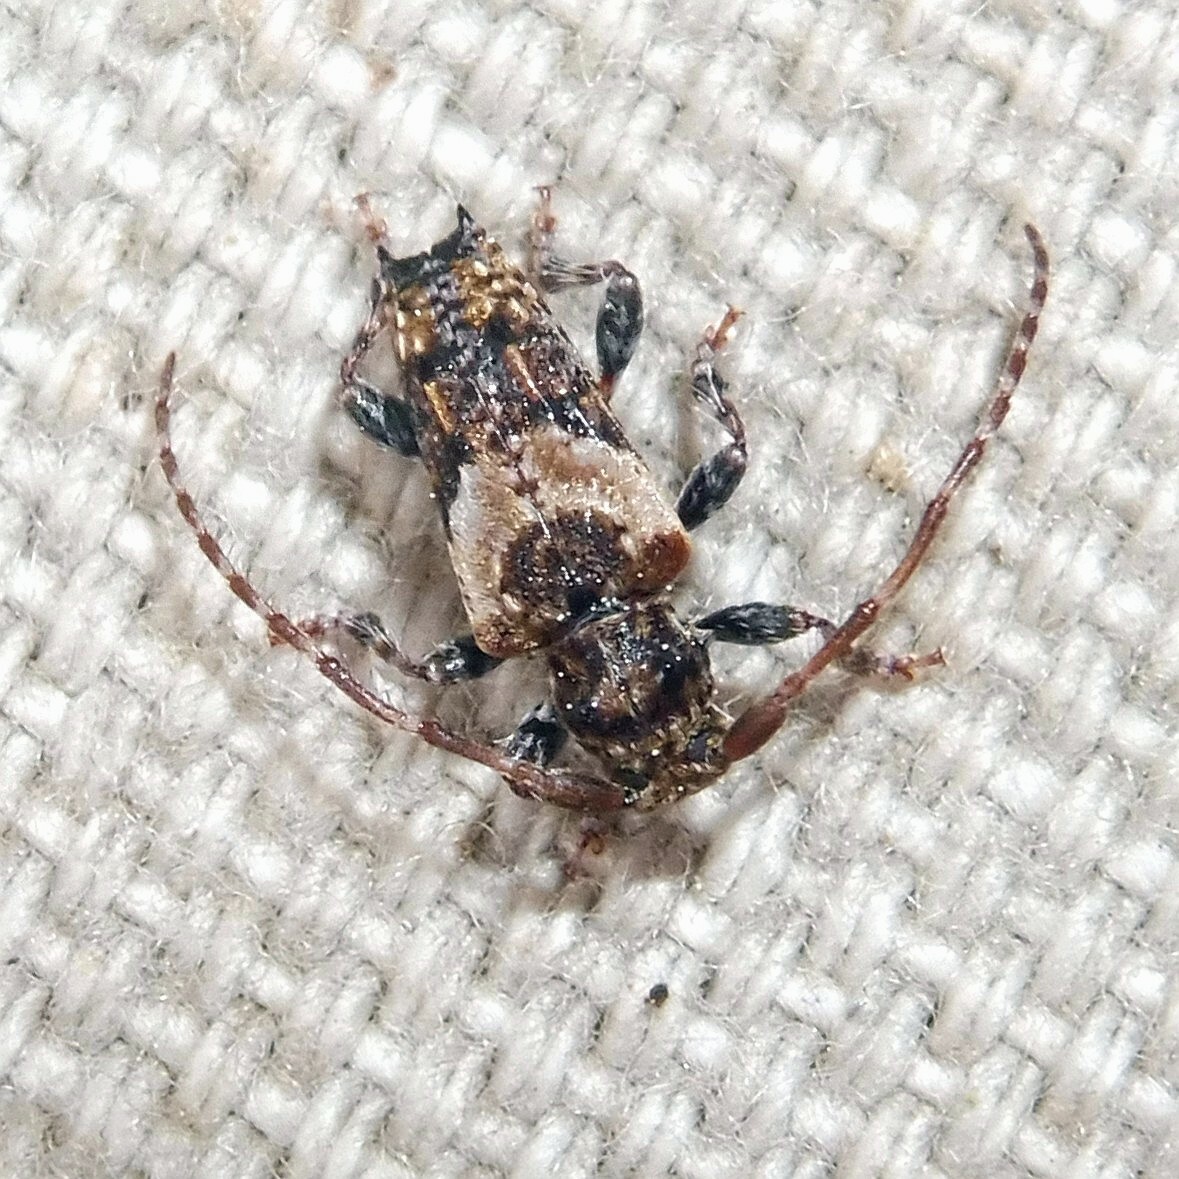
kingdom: Animalia
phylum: Arthropoda
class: Insecta
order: Coleoptera
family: Cerambycidae
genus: Pogonocherus
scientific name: Pogonocherus hispidus
